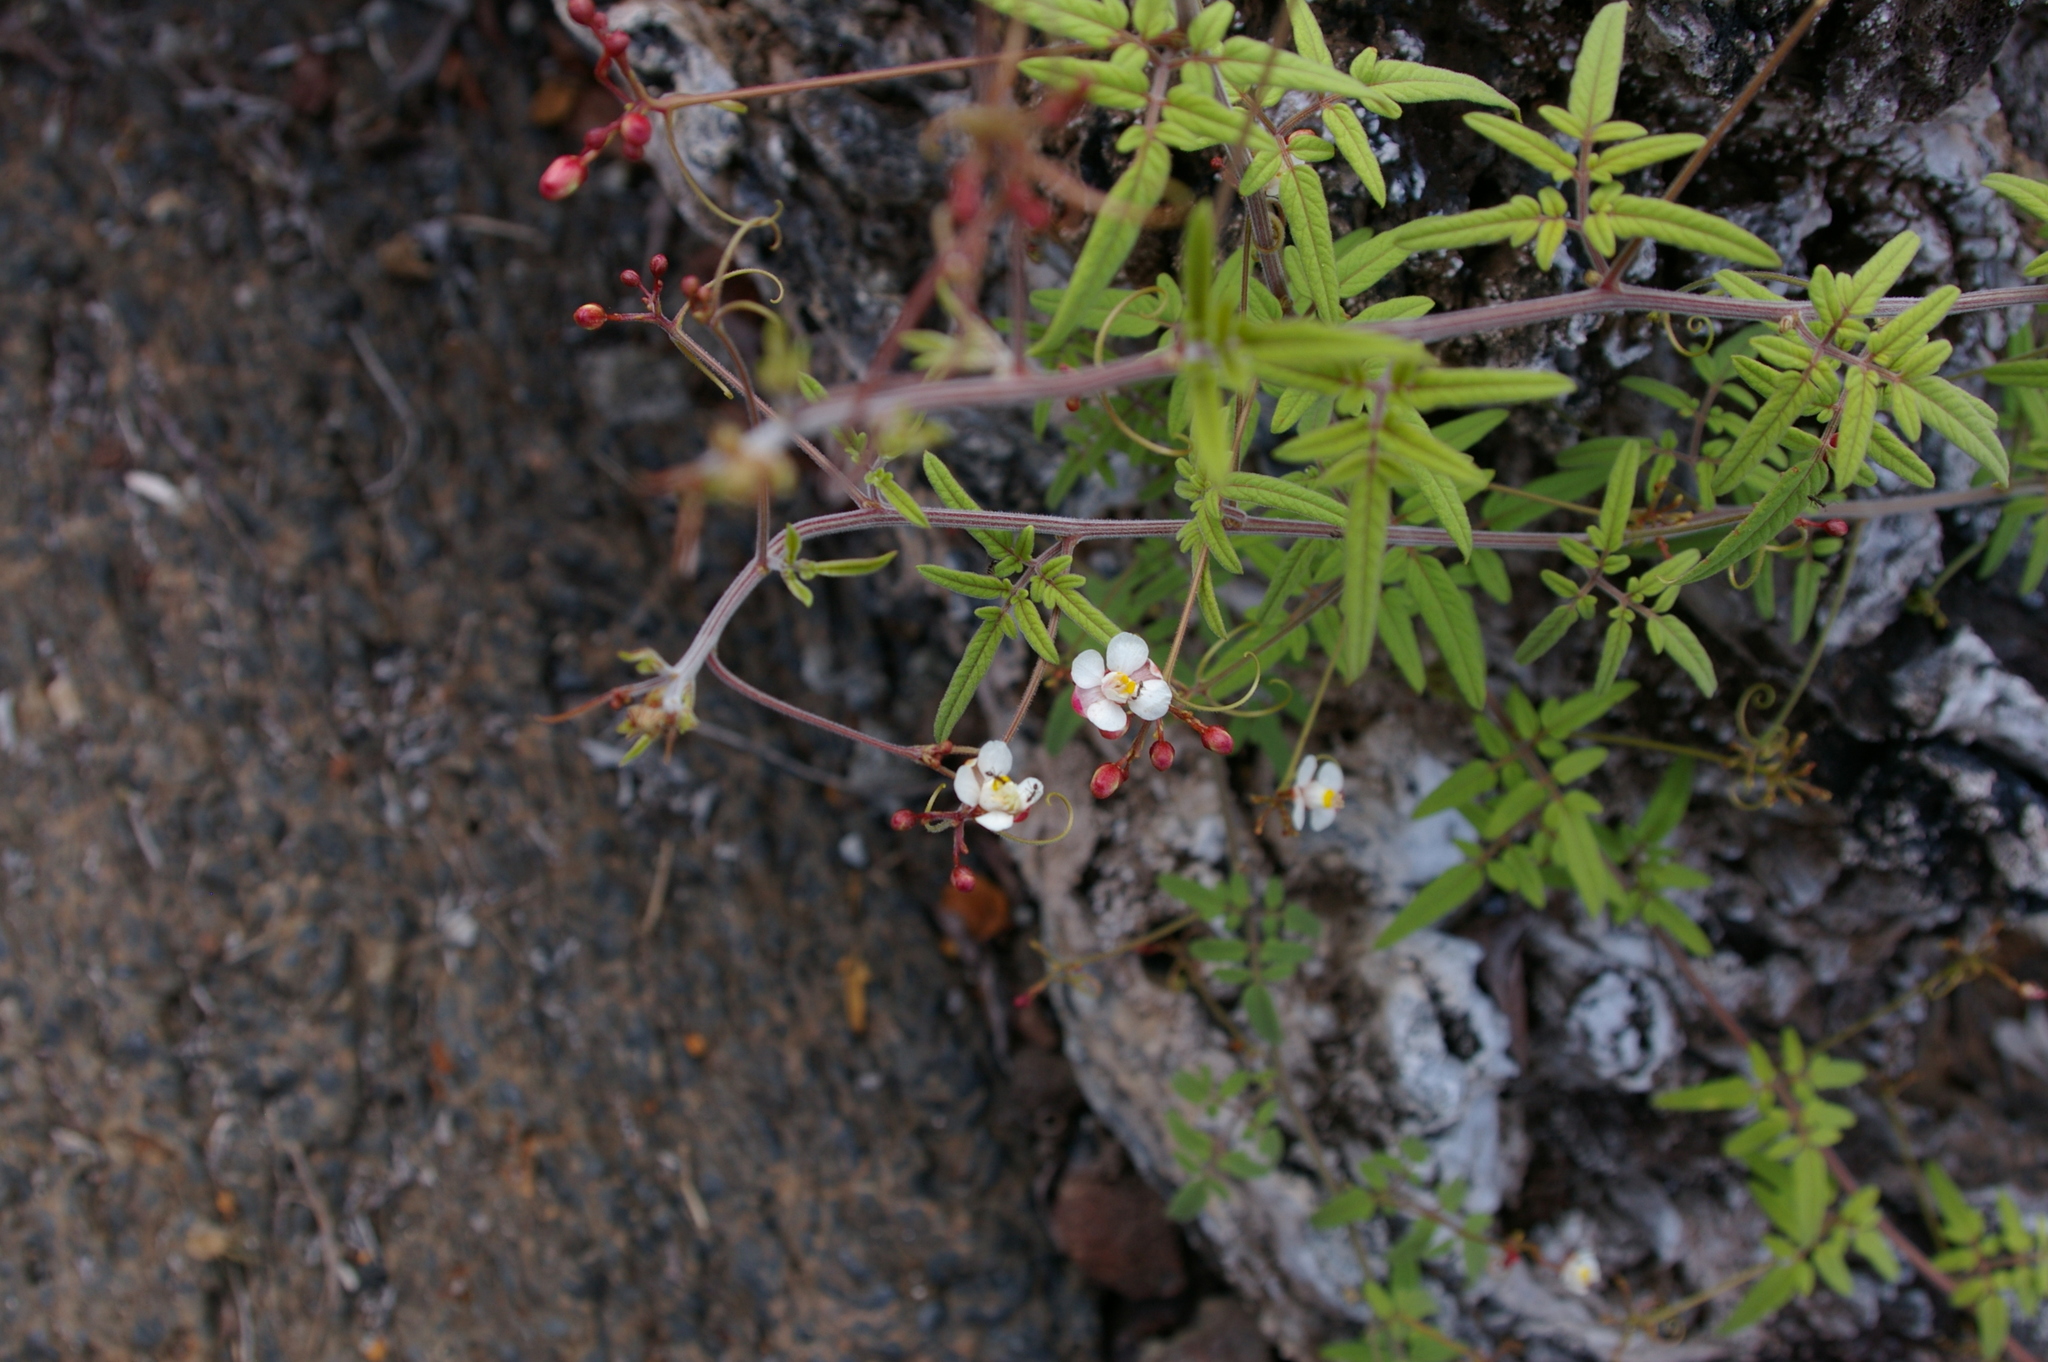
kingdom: Plantae
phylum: Tracheophyta
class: Magnoliopsida
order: Sapindales
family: Sapindaceae
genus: Cardiospermum
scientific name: Cardiospermum corindum
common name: Faux persil
